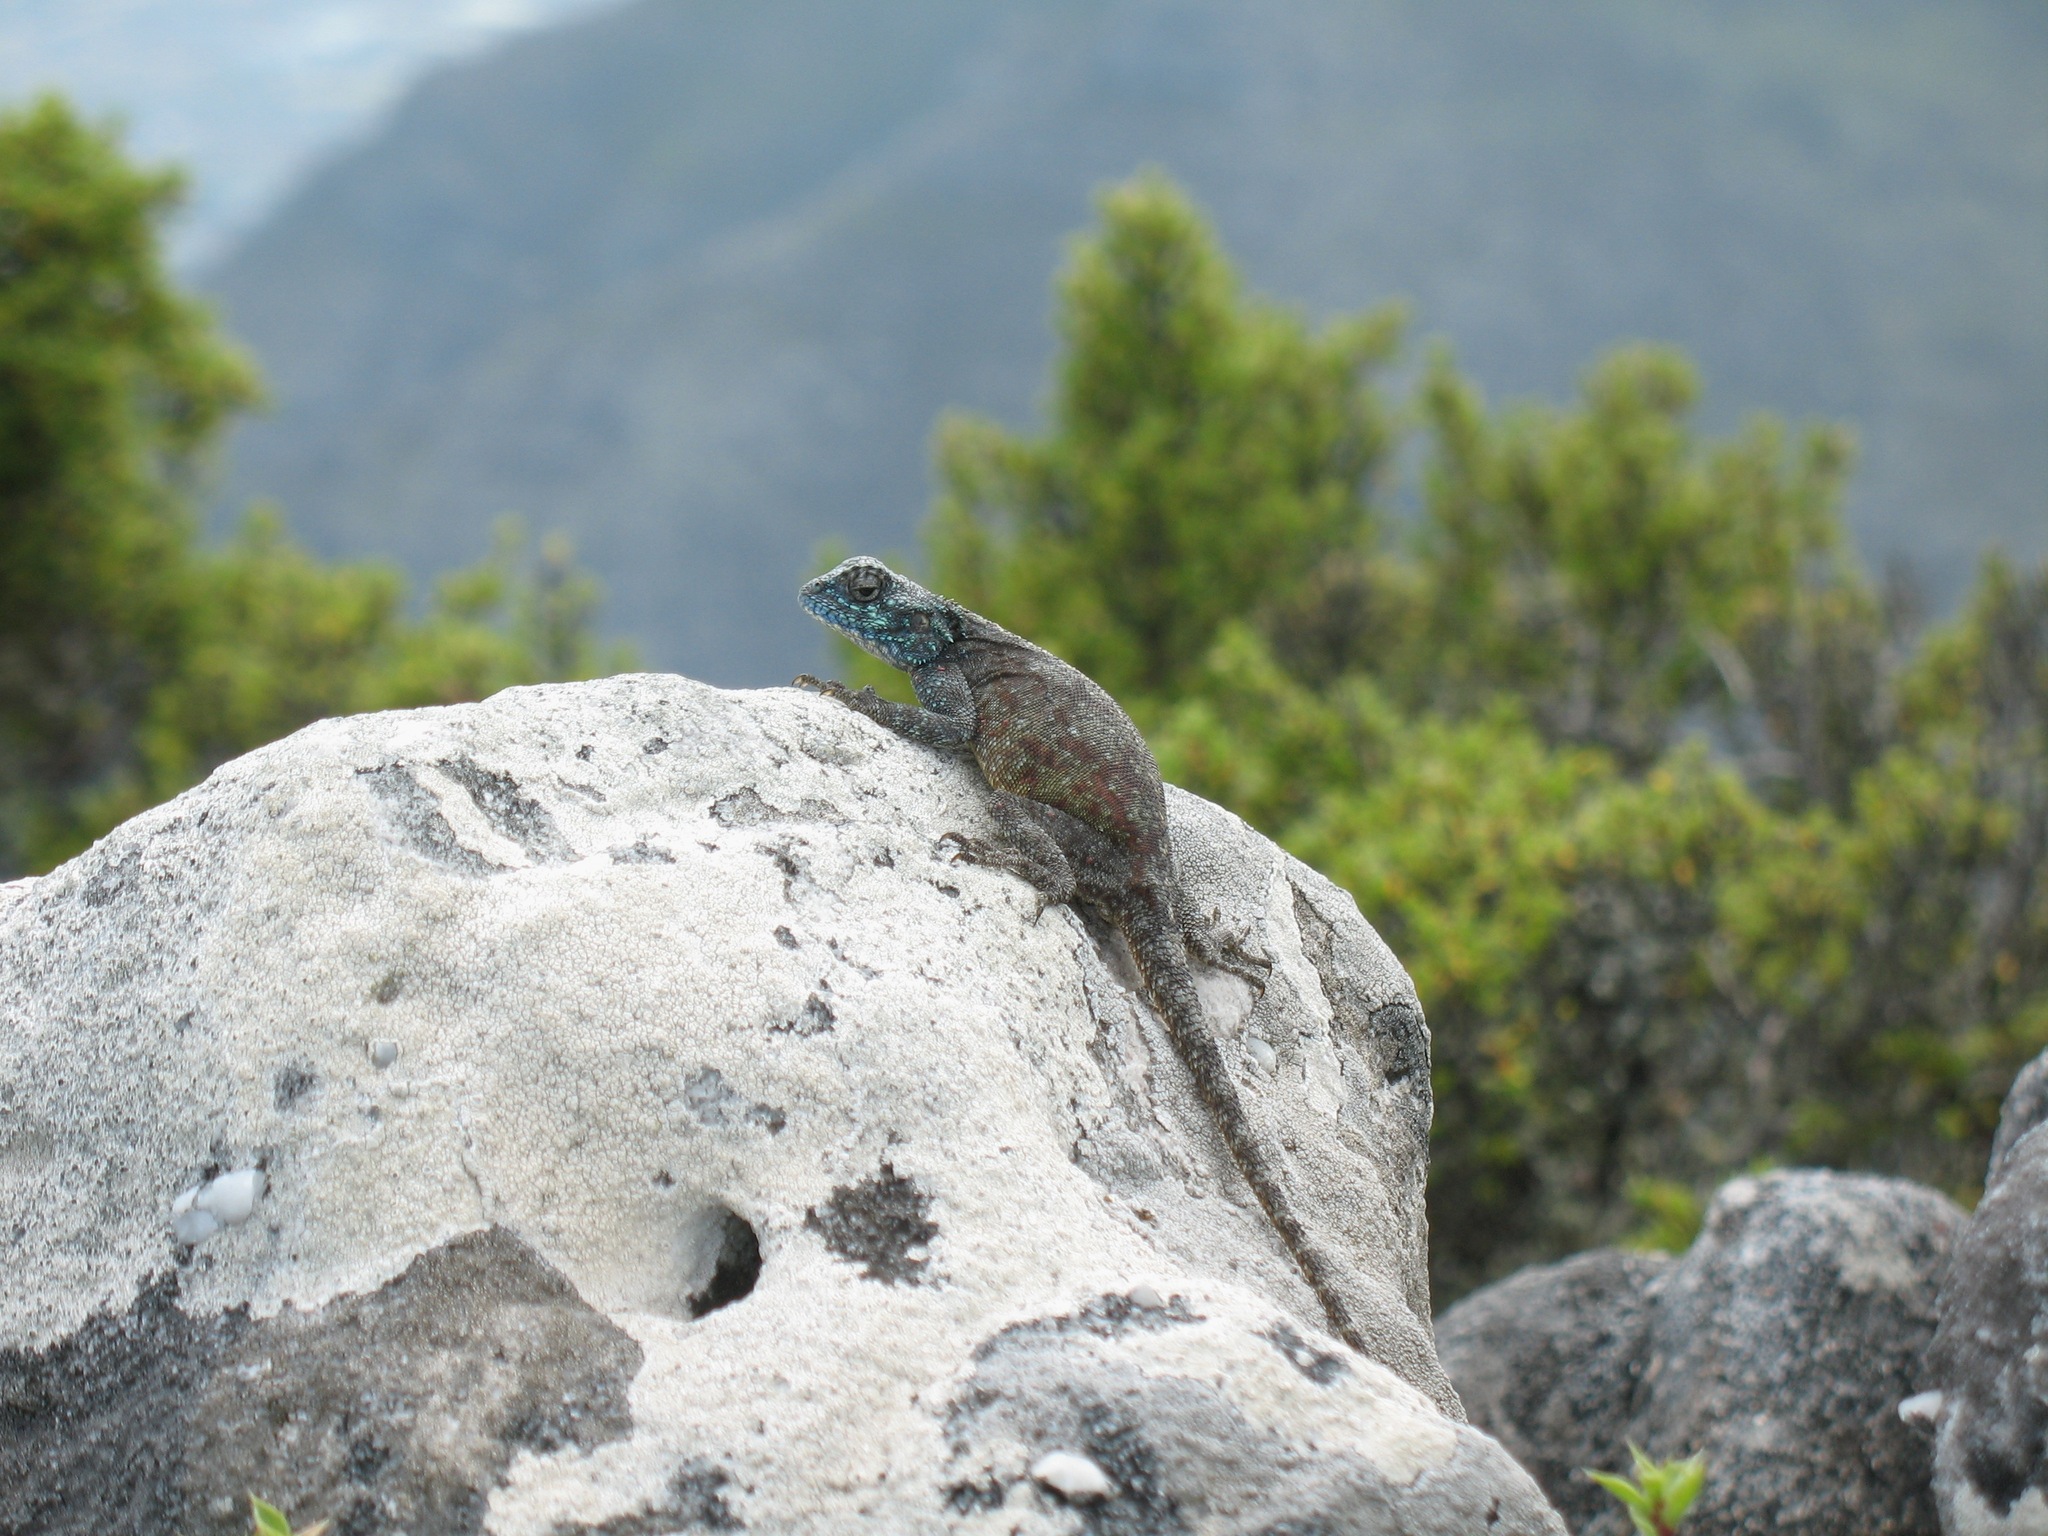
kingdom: Animalia
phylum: Chordata
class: Squamata
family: Agamidae
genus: Agama
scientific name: Agama atra
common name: Southern african rock agama
